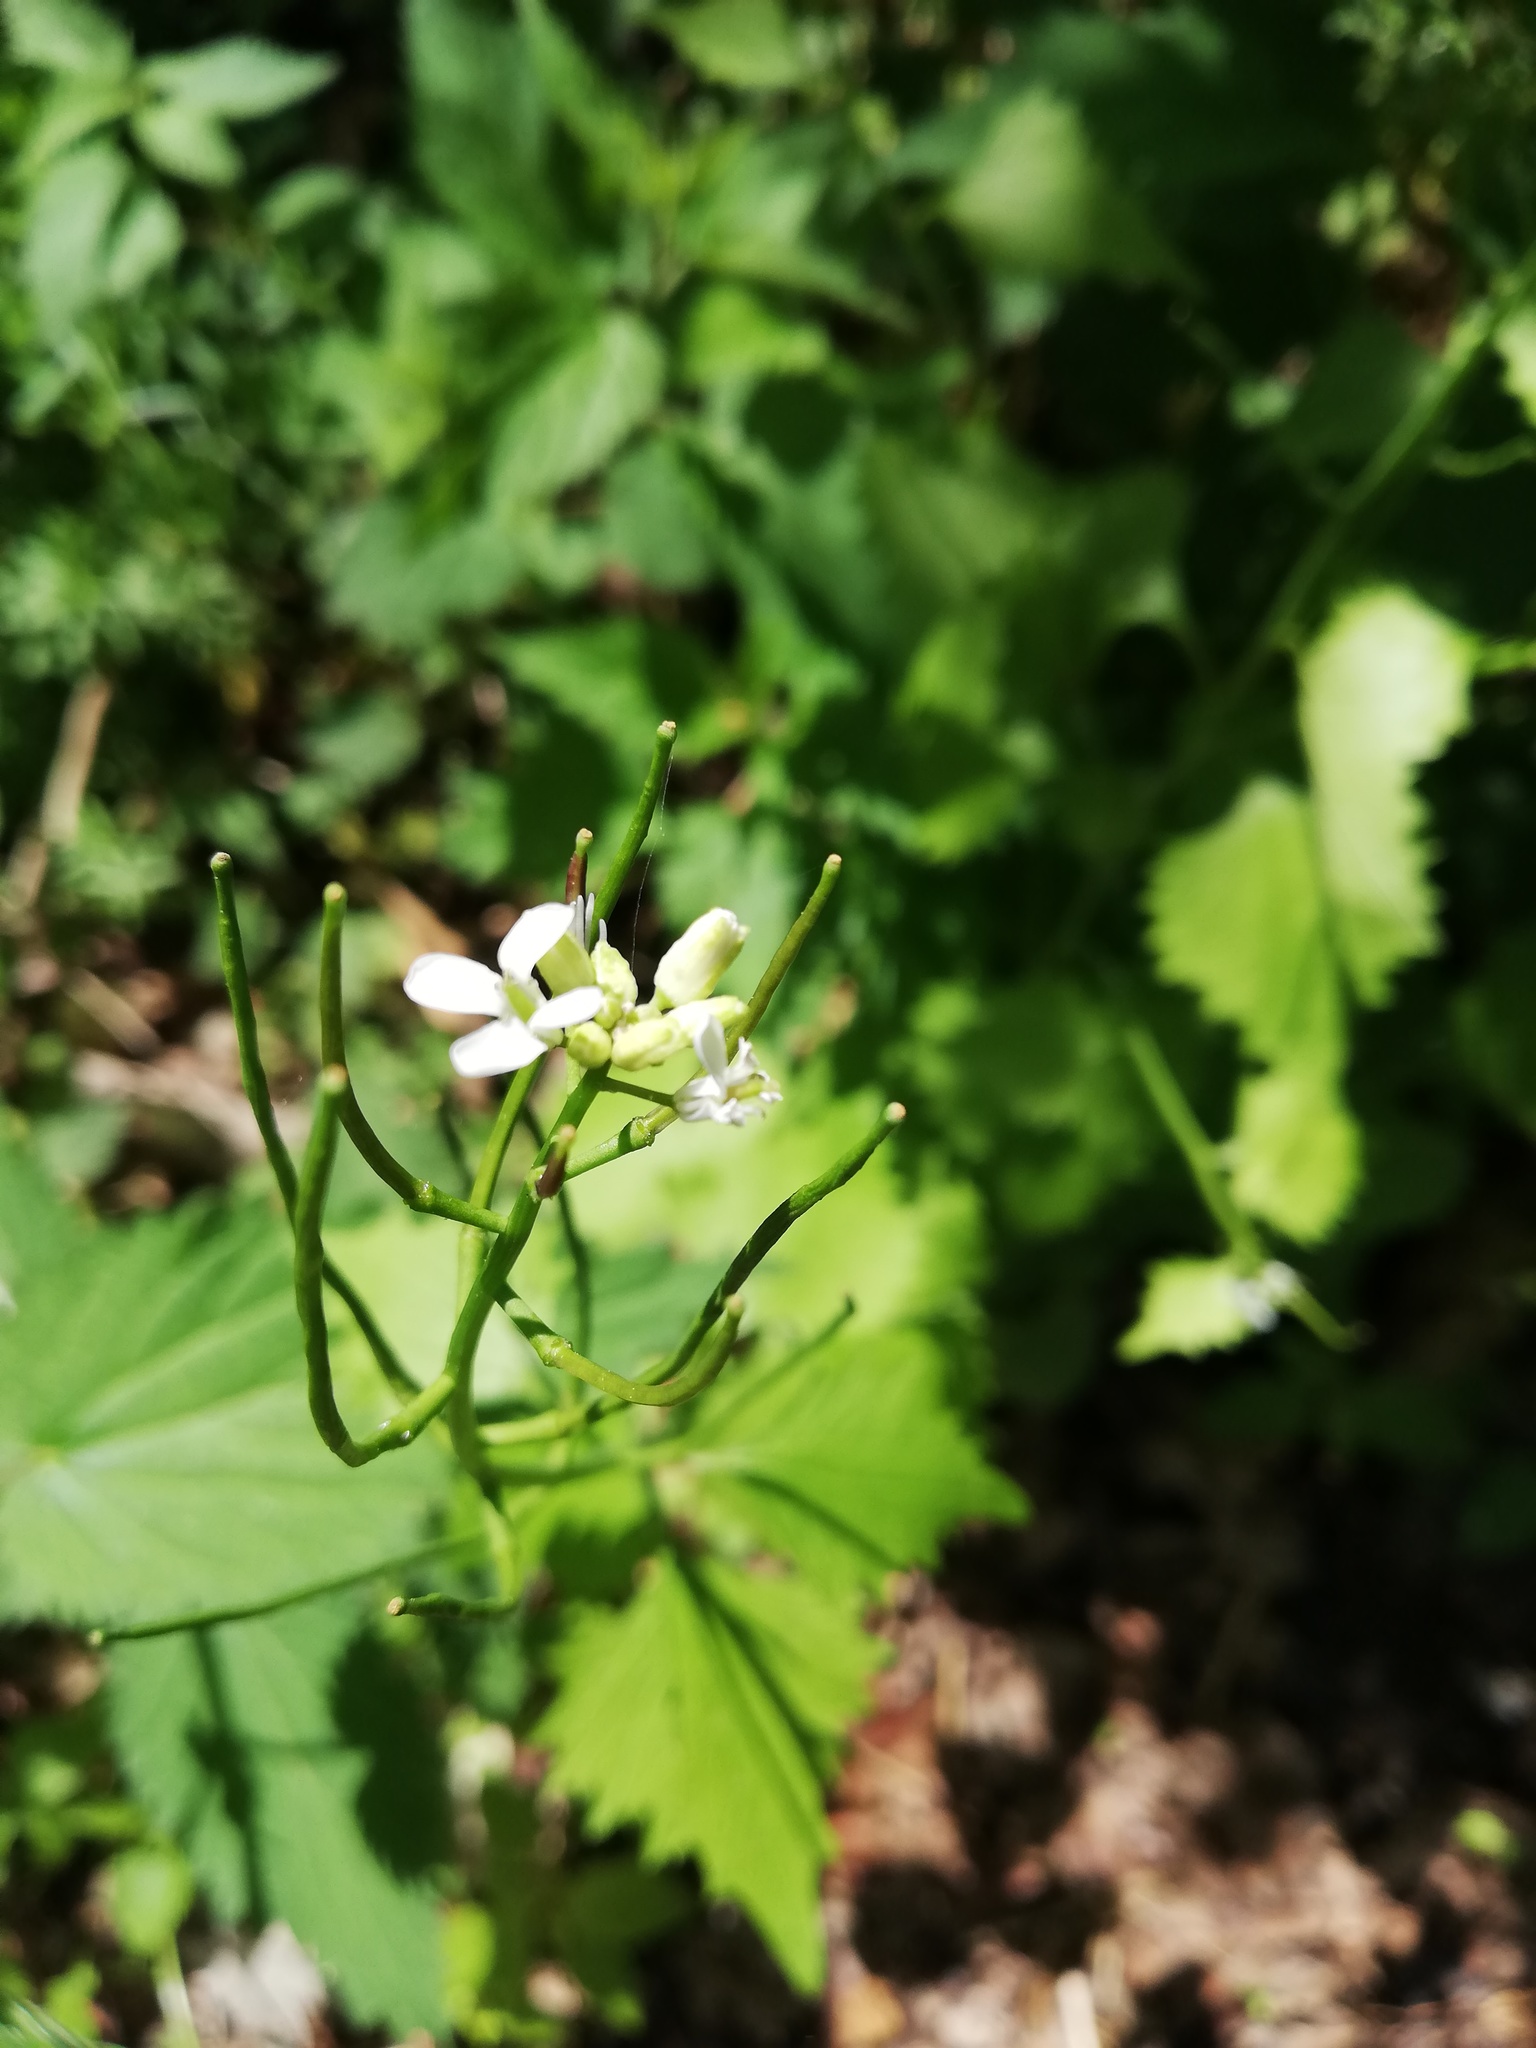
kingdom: Plantae
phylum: Tracheophyta
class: Magnoliopsida
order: Brassicales
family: Brassicaceae
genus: Alliaria
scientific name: Alliaria petiolata
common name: Garlic mustard
